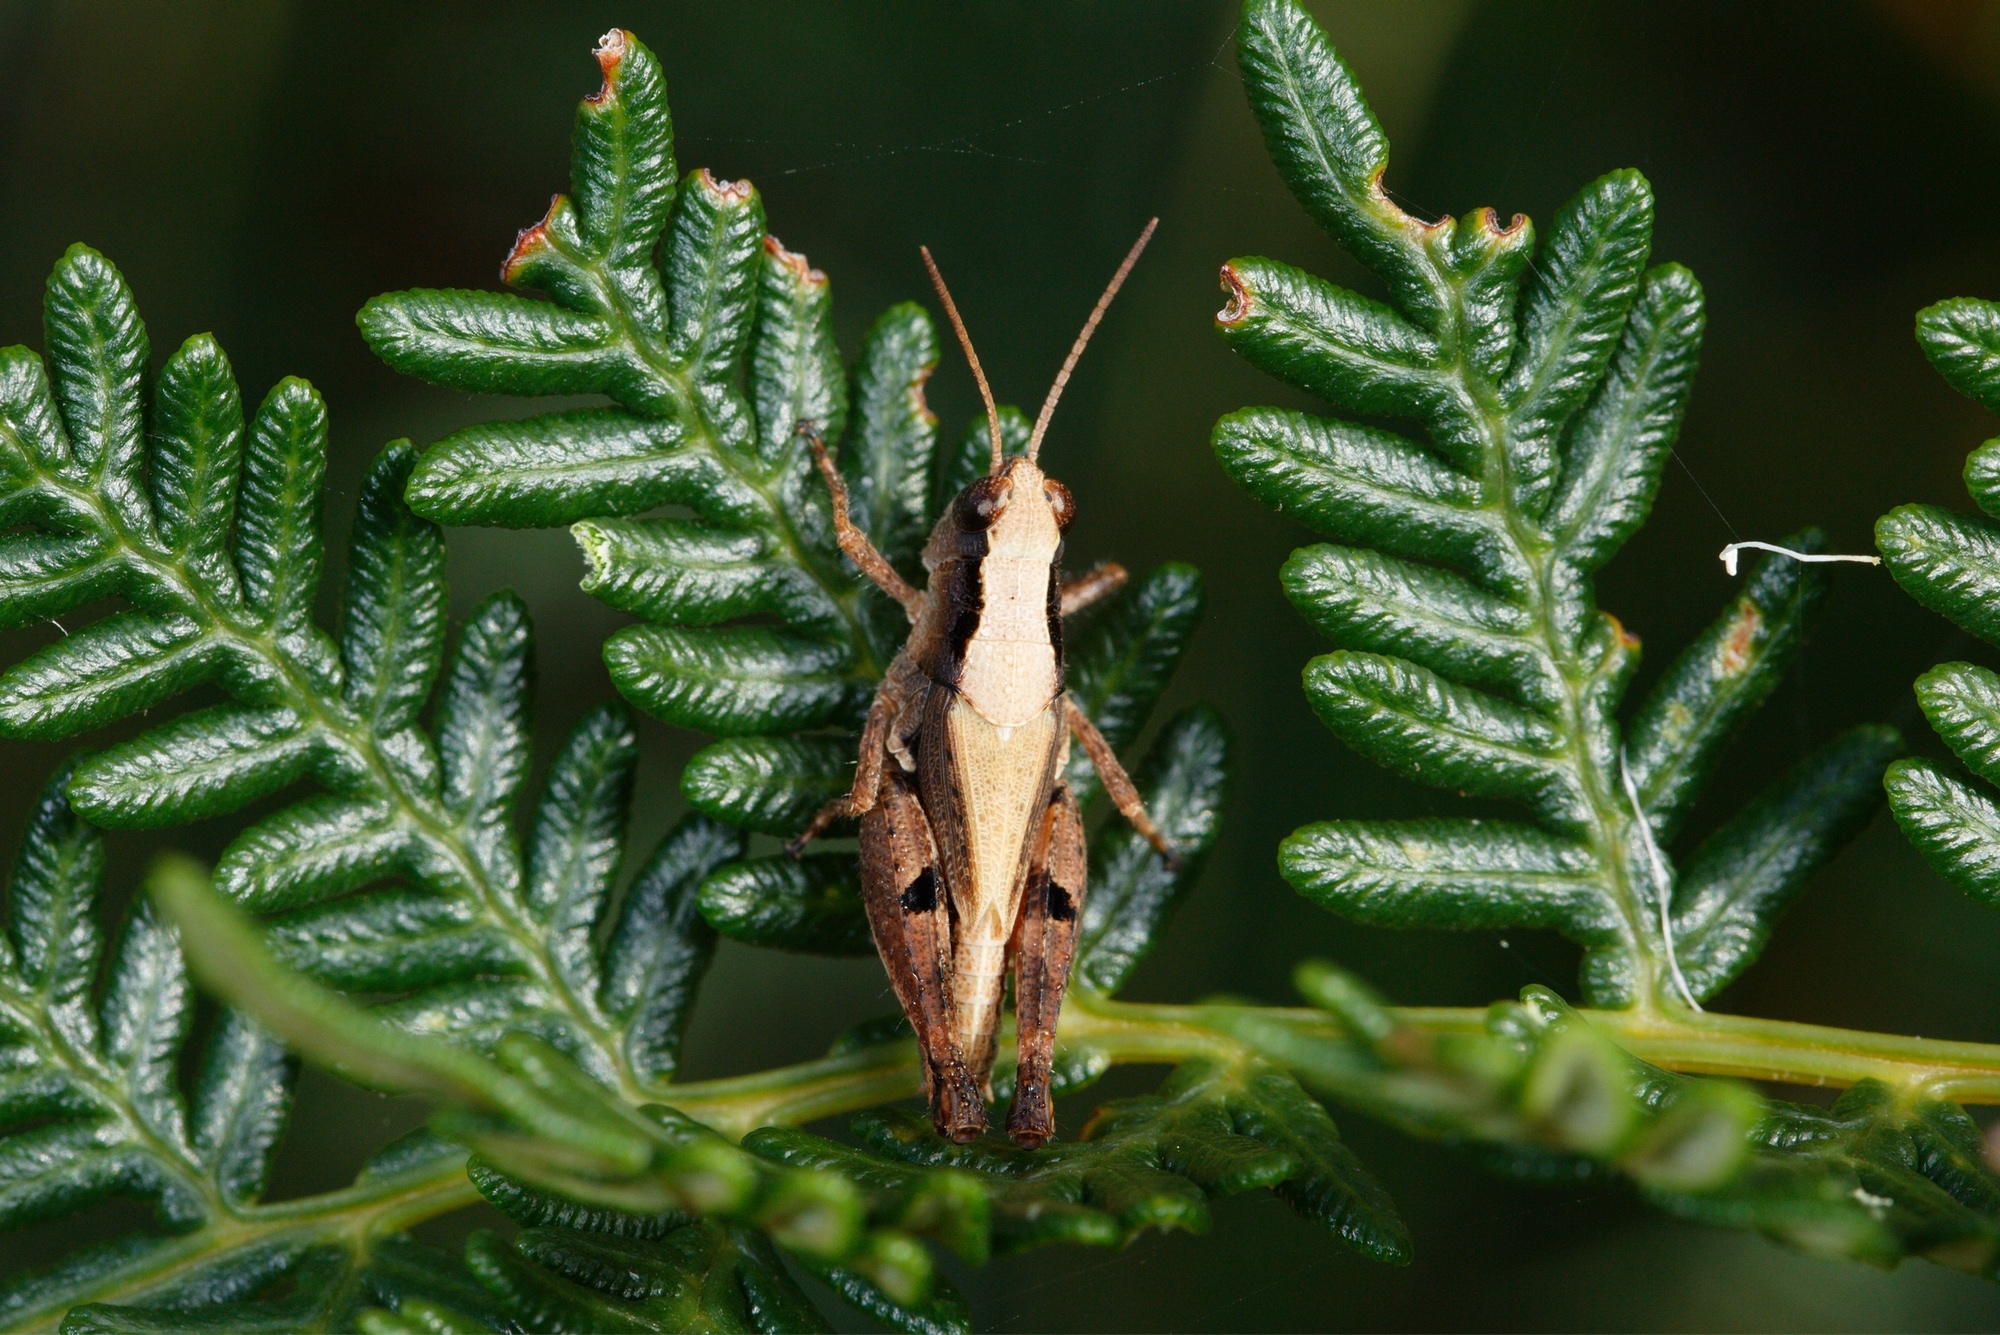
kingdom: Animalia
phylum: Arthropoda
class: Insecta
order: Orthoptera
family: Acrididae
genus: Phaulacridium
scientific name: Phaulacridium vittatum
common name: Wingless grasshopper
